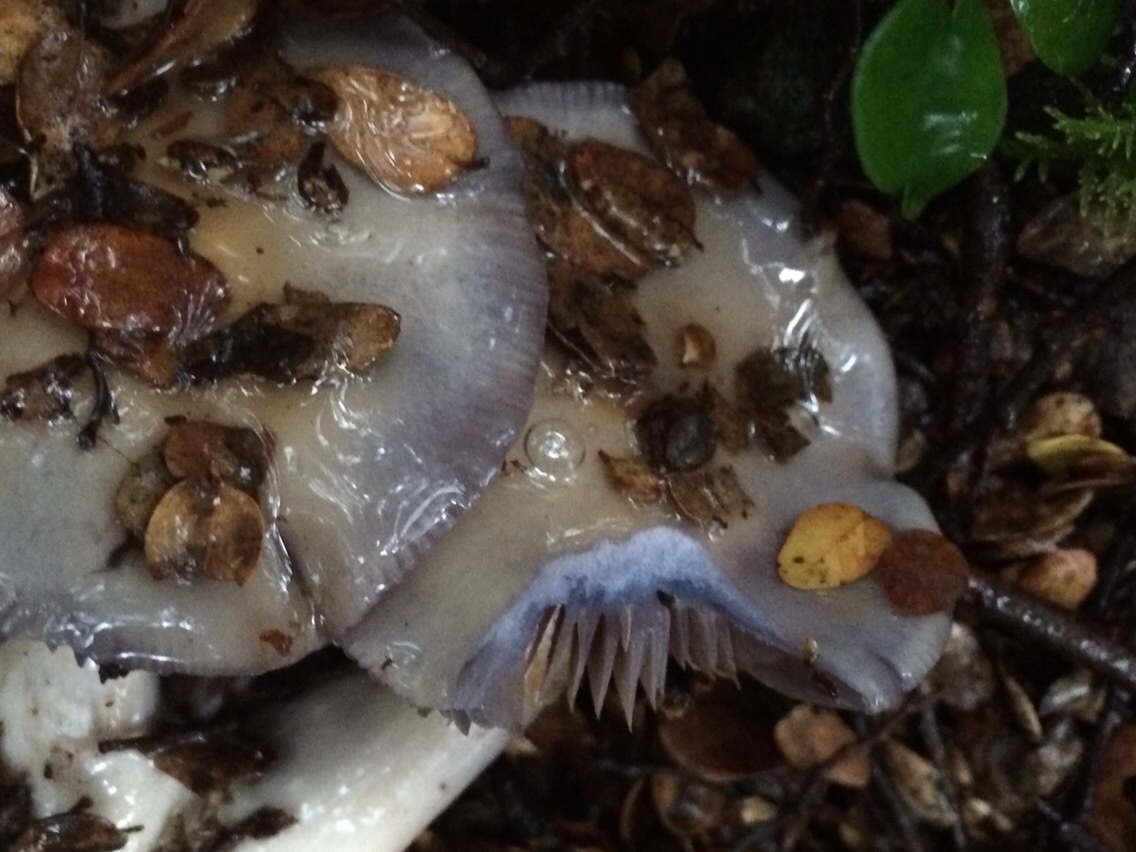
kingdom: Fungi
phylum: Basidiomycota
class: Agaricomycetes
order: Agaricales
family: Cortinariaceae
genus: Cortinarius
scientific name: Cortinarius taylorianus
